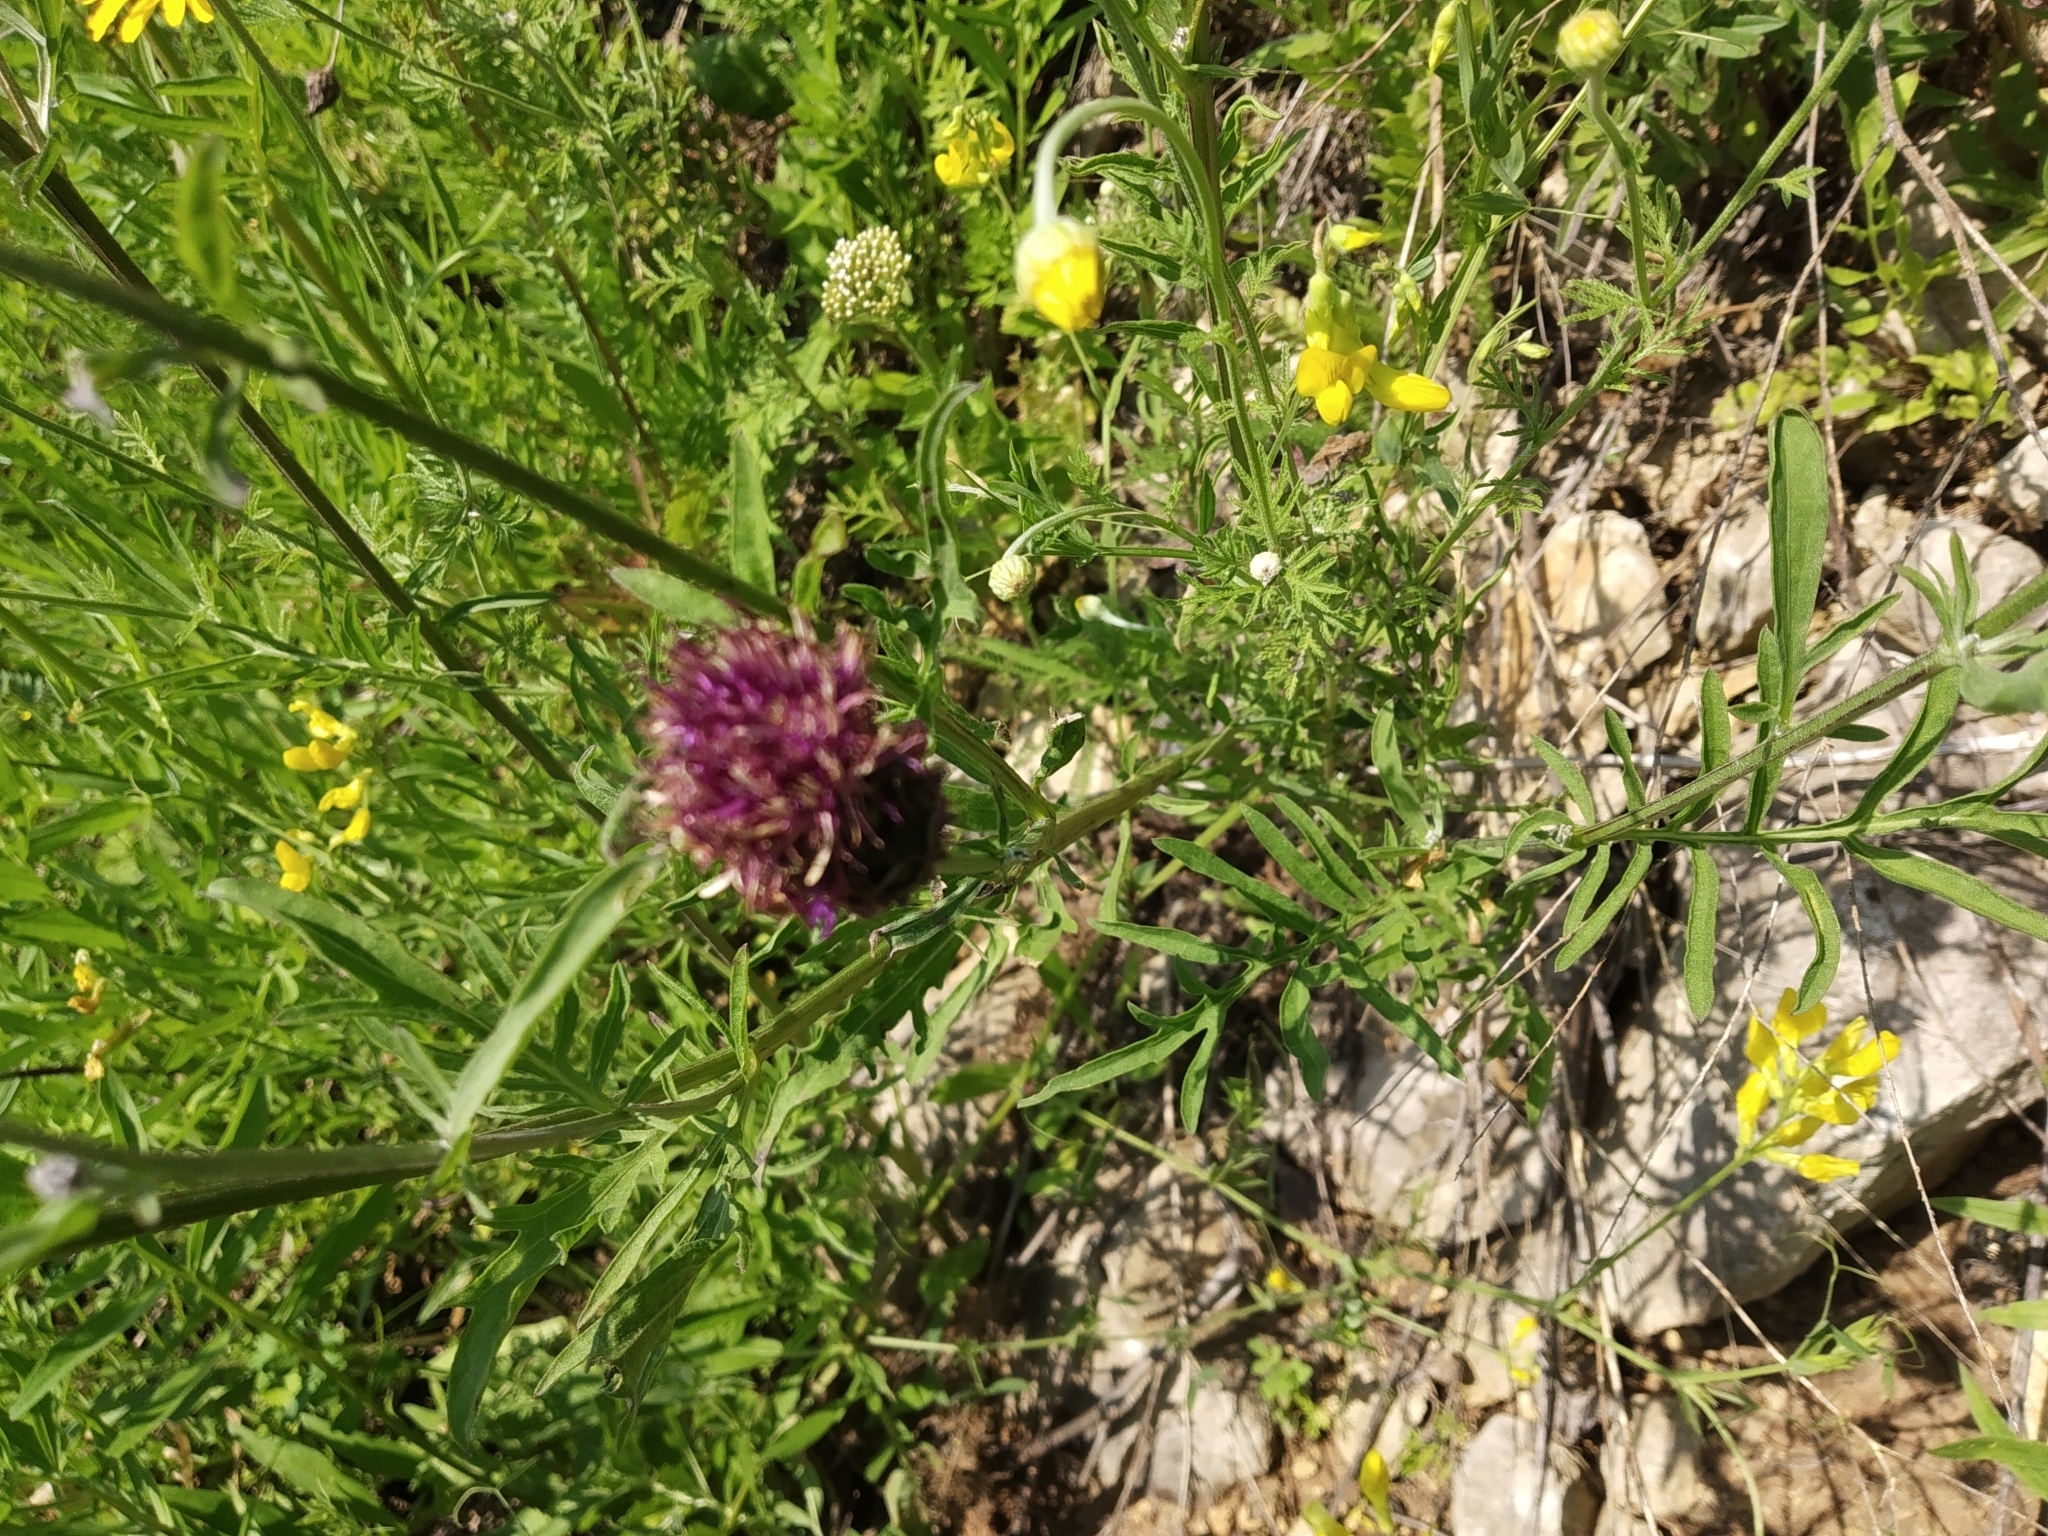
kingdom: Plantae
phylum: Tracheophyta
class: Magnoliopsida
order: Asterales
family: Asteraceae
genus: Centaurea
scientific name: Centaurea scabiosa
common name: Greater knapweed
